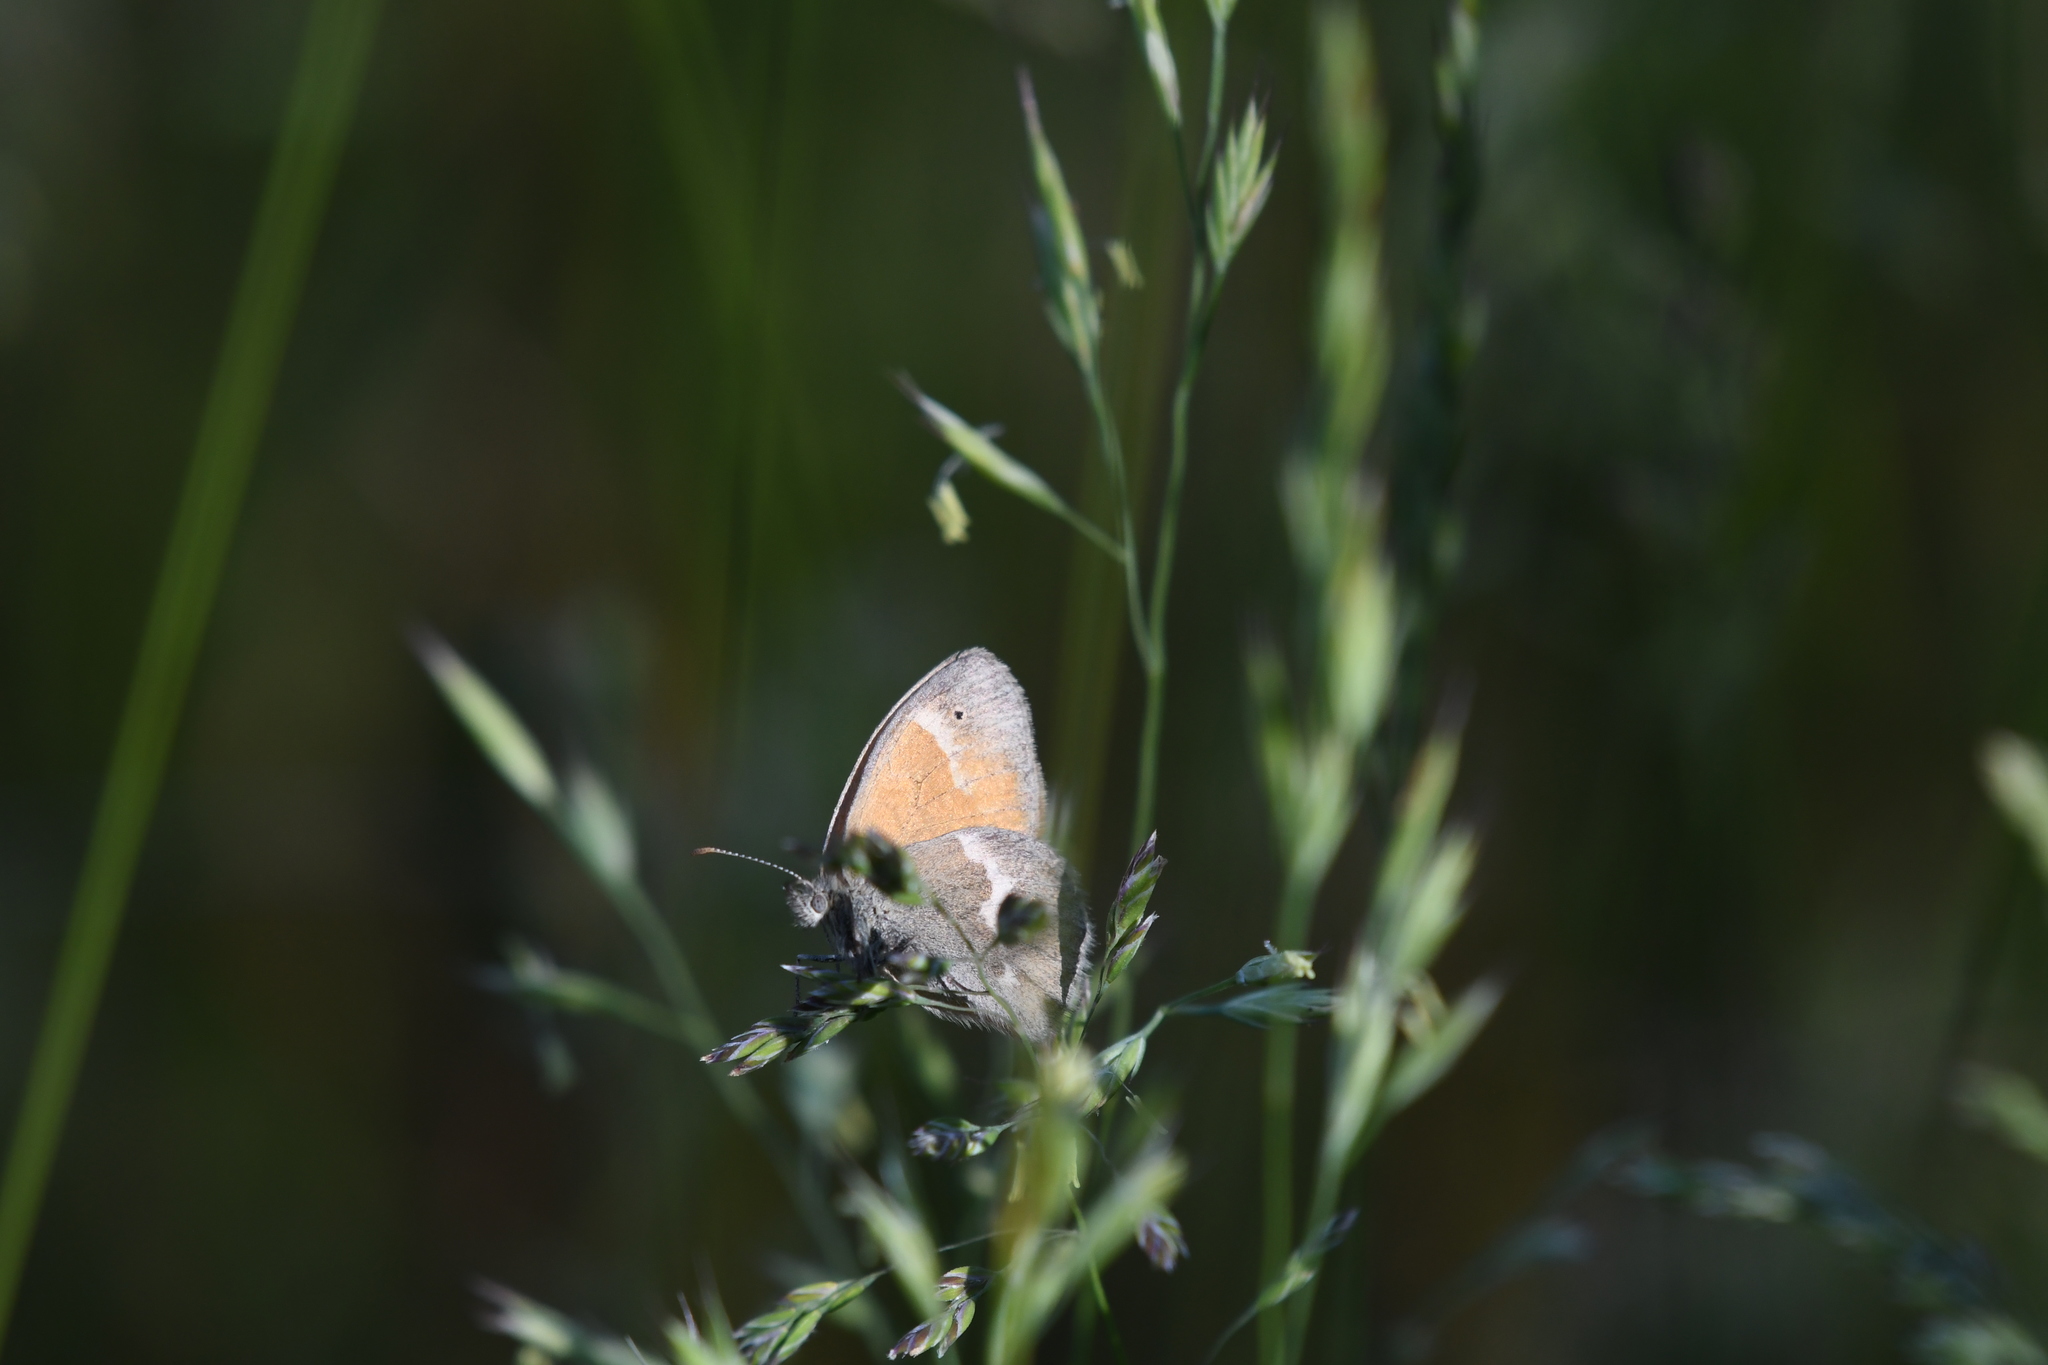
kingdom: Animalia
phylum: Arthropoda
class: Insecta
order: Lepidoptera
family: Nymphalidae
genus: Coenonympha
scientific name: Coenonympha california
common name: Common ringlet
